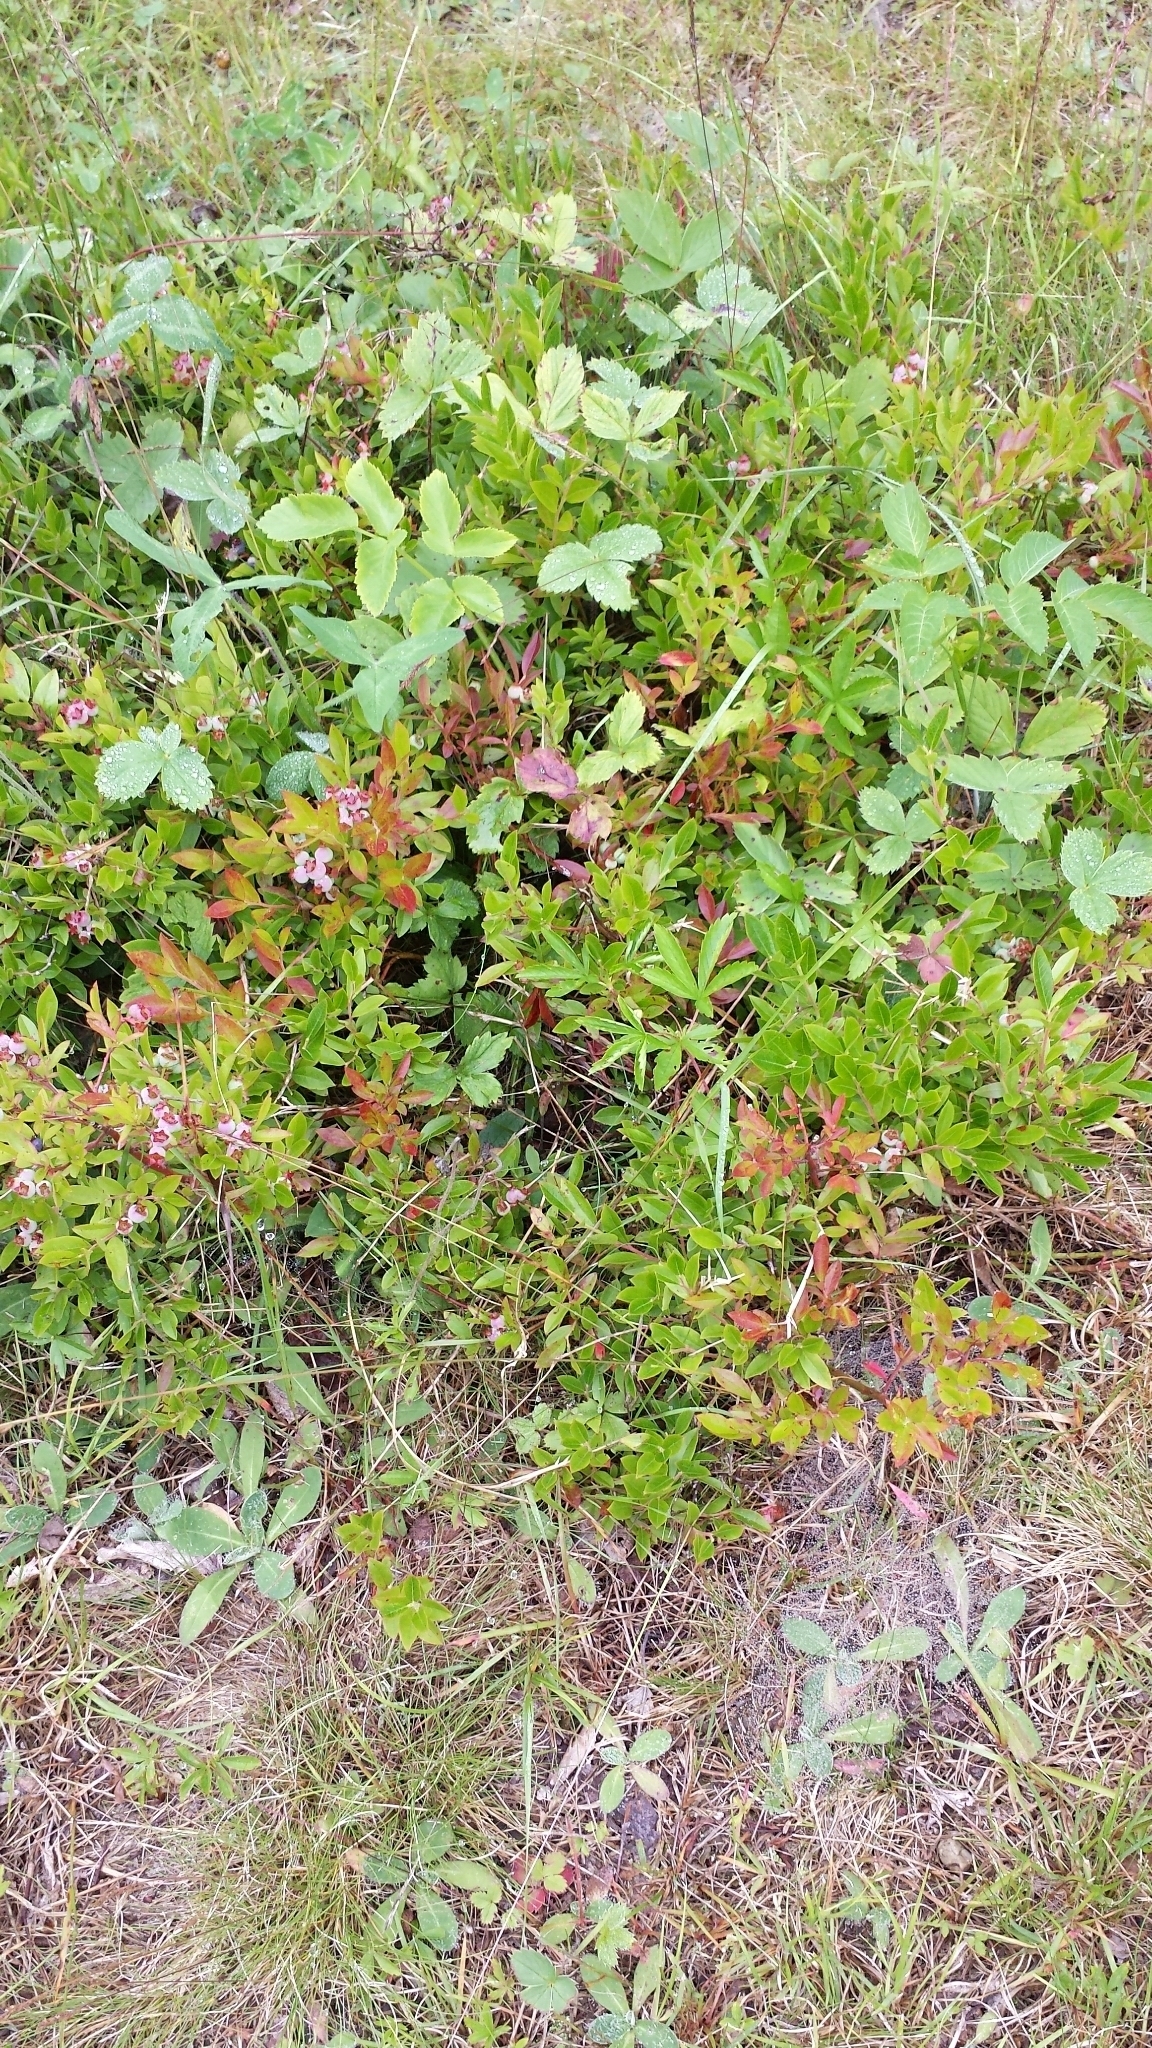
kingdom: Plantae
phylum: Tracheophyta
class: Magnoliopsida
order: Ericales
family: Ericaceae
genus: Vaccinium
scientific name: Vaccinium angustifolium
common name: Early lowbush blueberry
